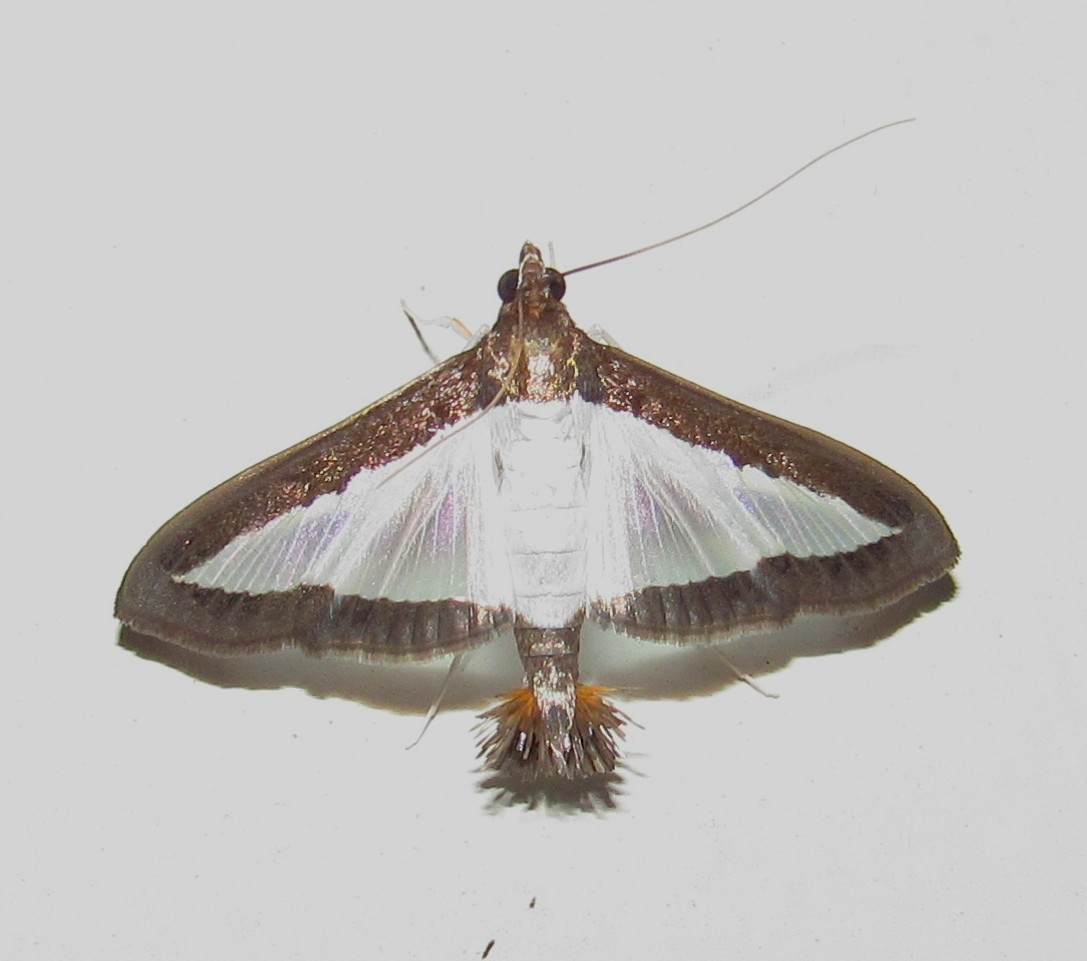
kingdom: Animalia
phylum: Arthropoda
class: Insecta
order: Lepidoptera
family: Crambidae
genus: Diaphania
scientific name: Diaphania hyalinata
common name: Melonworm
